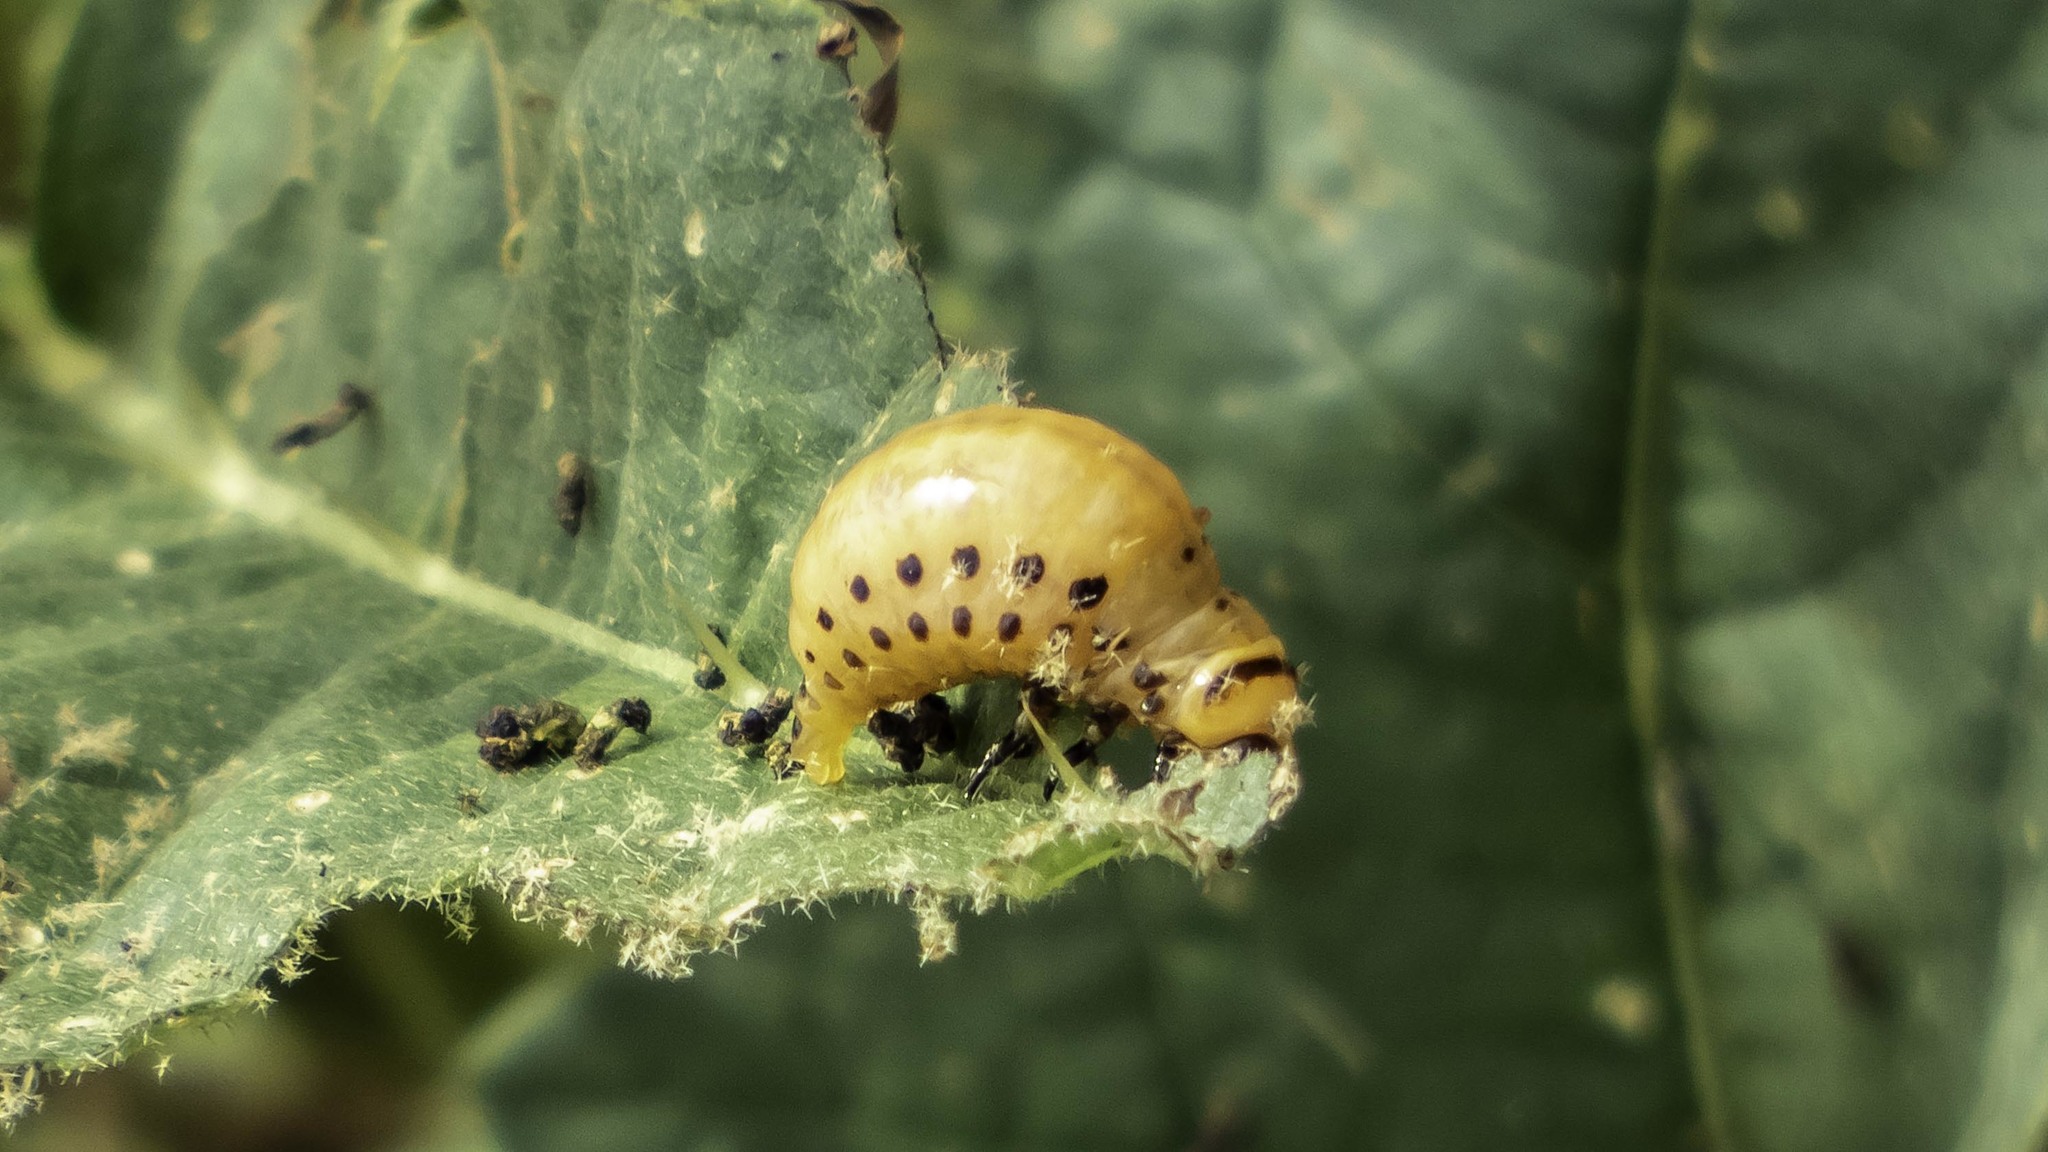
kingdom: Animalia
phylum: Arthropoda
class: Insecta
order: Coleoptera
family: Chrysomelidae
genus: Leptinotarsa
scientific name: Leptinotarsa decemlineata
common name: Colorado potato beetle
